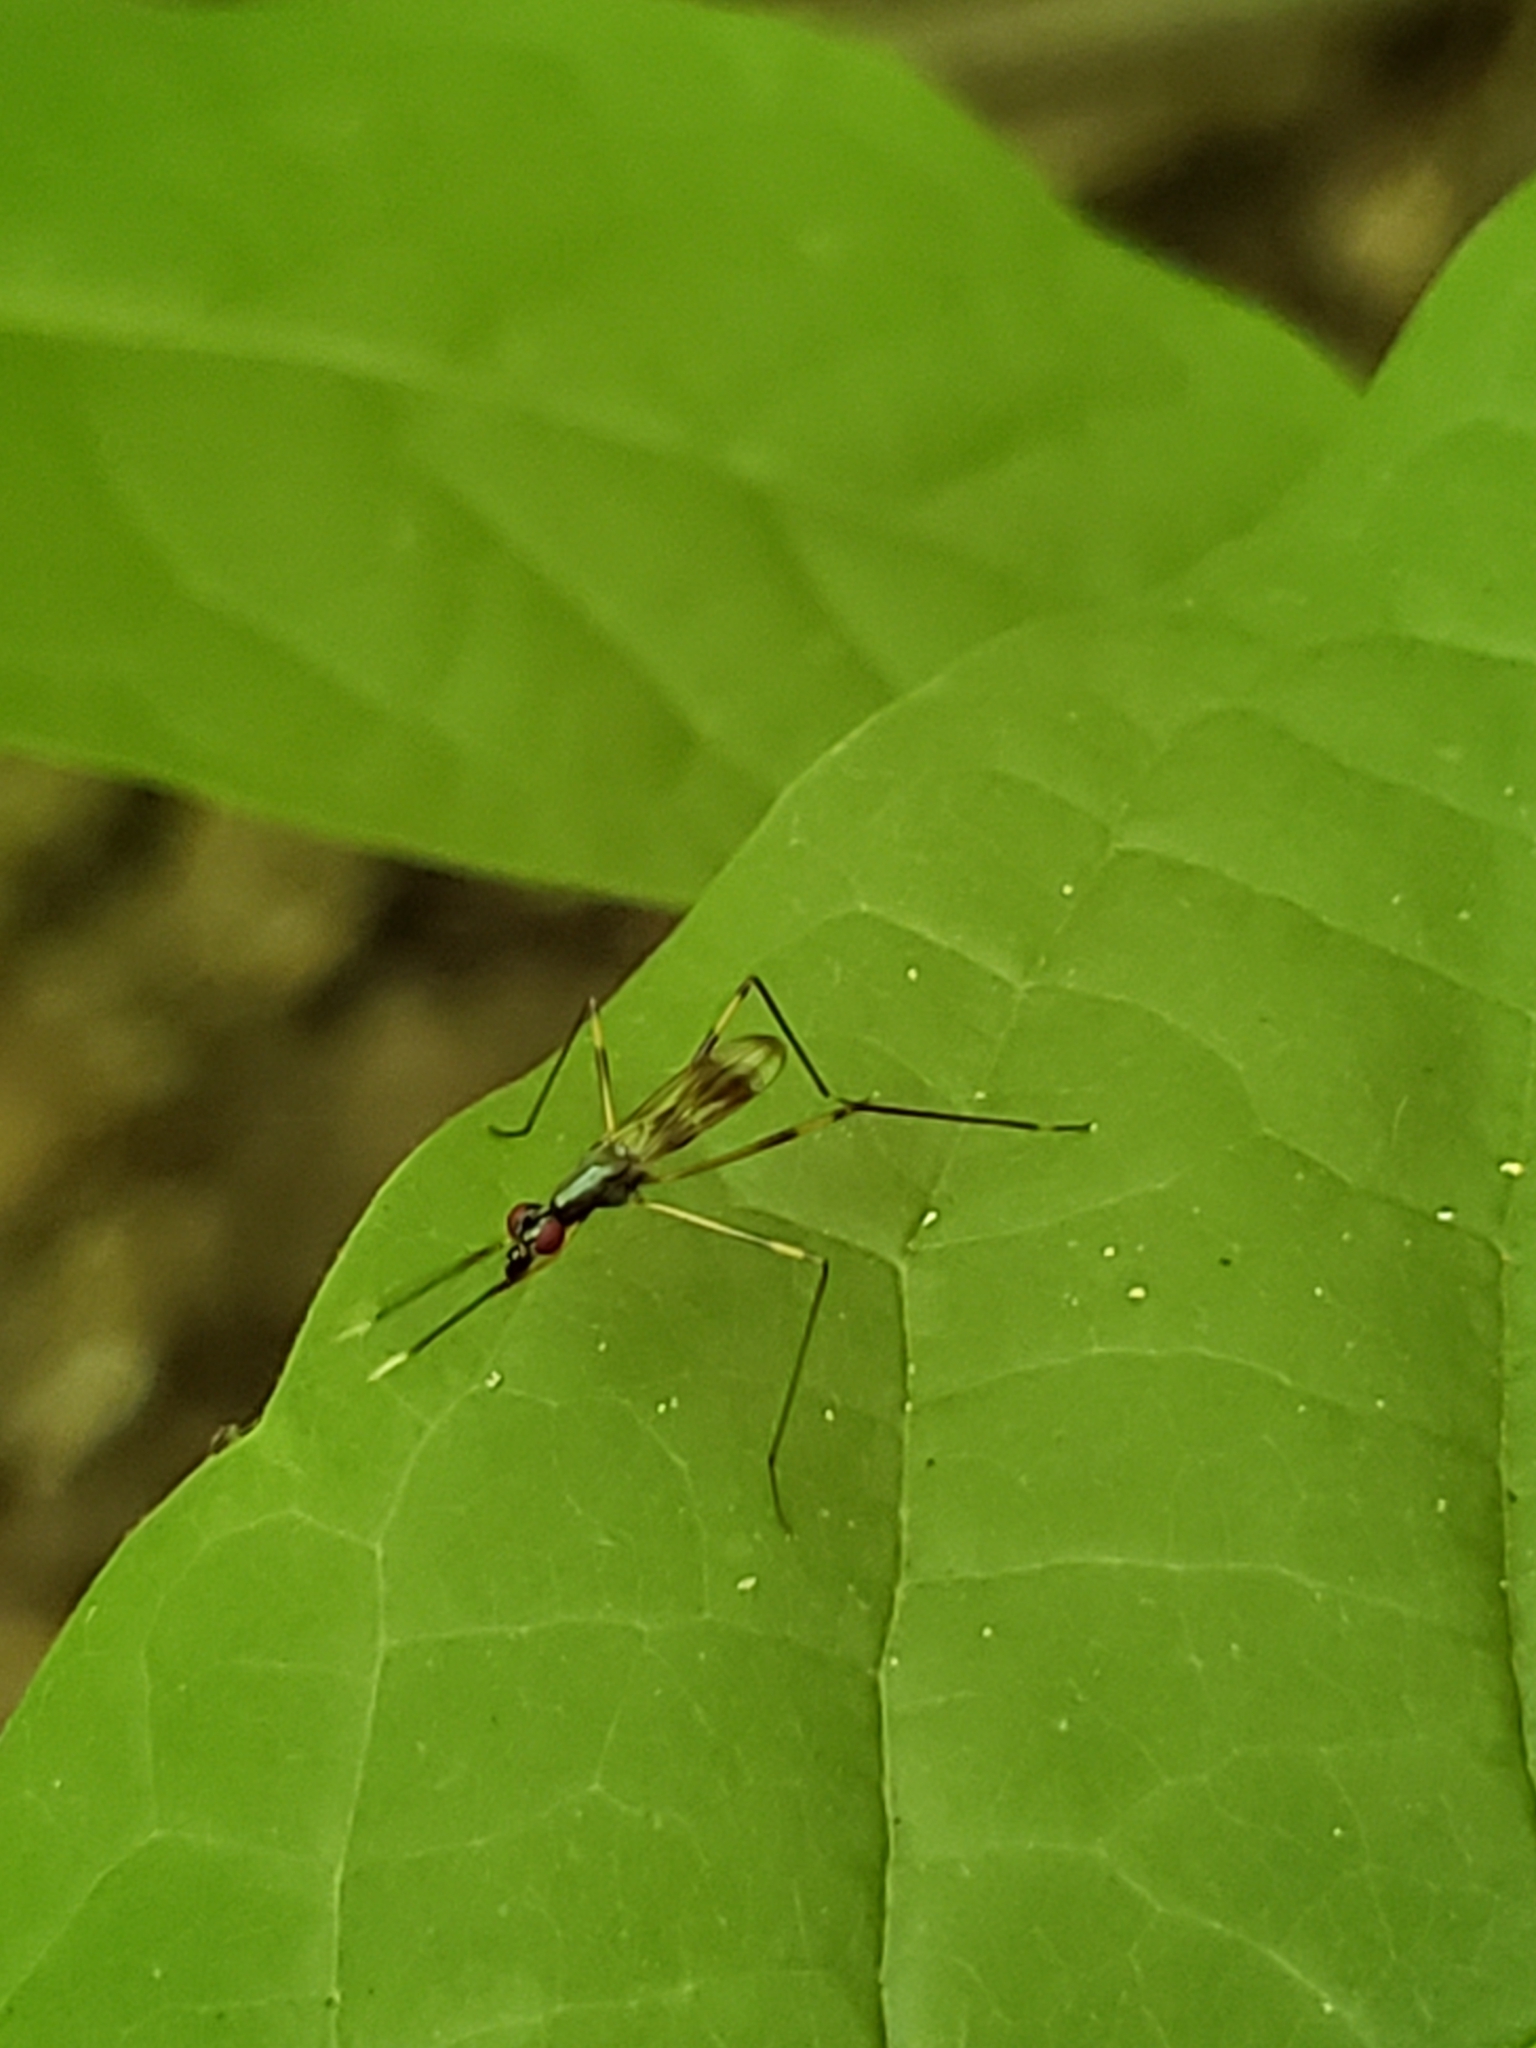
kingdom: Animalia
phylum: Arthropoda
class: Insecta
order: Diptera
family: Micropezidae
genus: Rainieria
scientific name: Rainieria antennaepes
